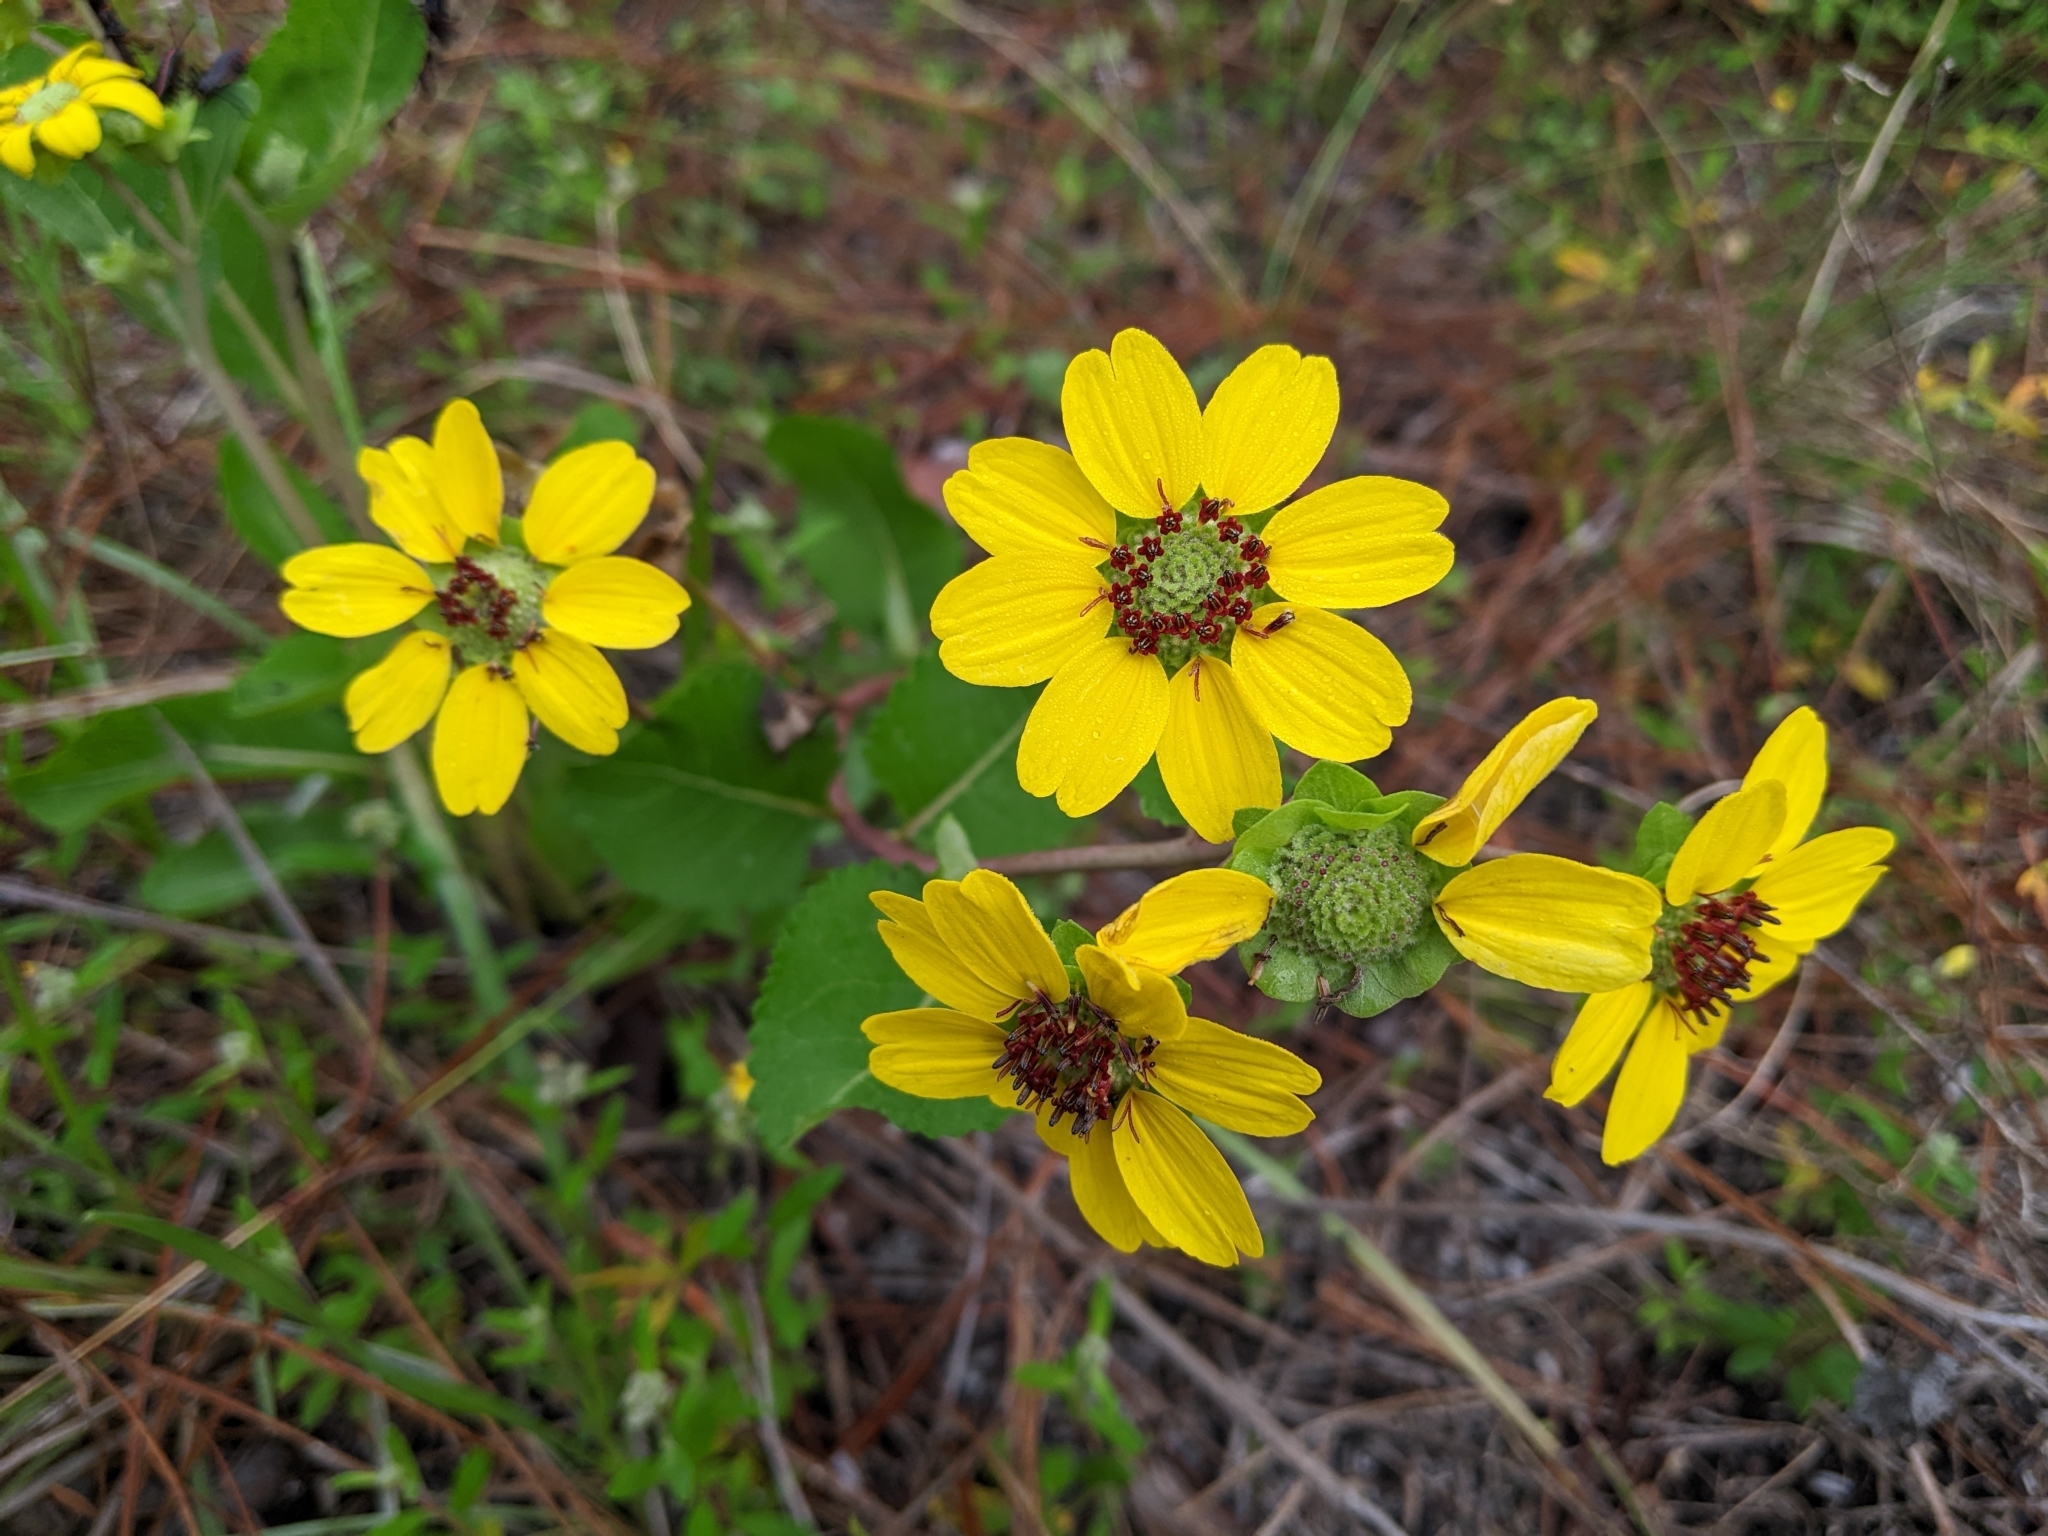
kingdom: Plantae
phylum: Tracheophyta
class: Magnoliopsida
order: Asterales
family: Asteraceae
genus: Berlandiera
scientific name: Berlandiera pumila
